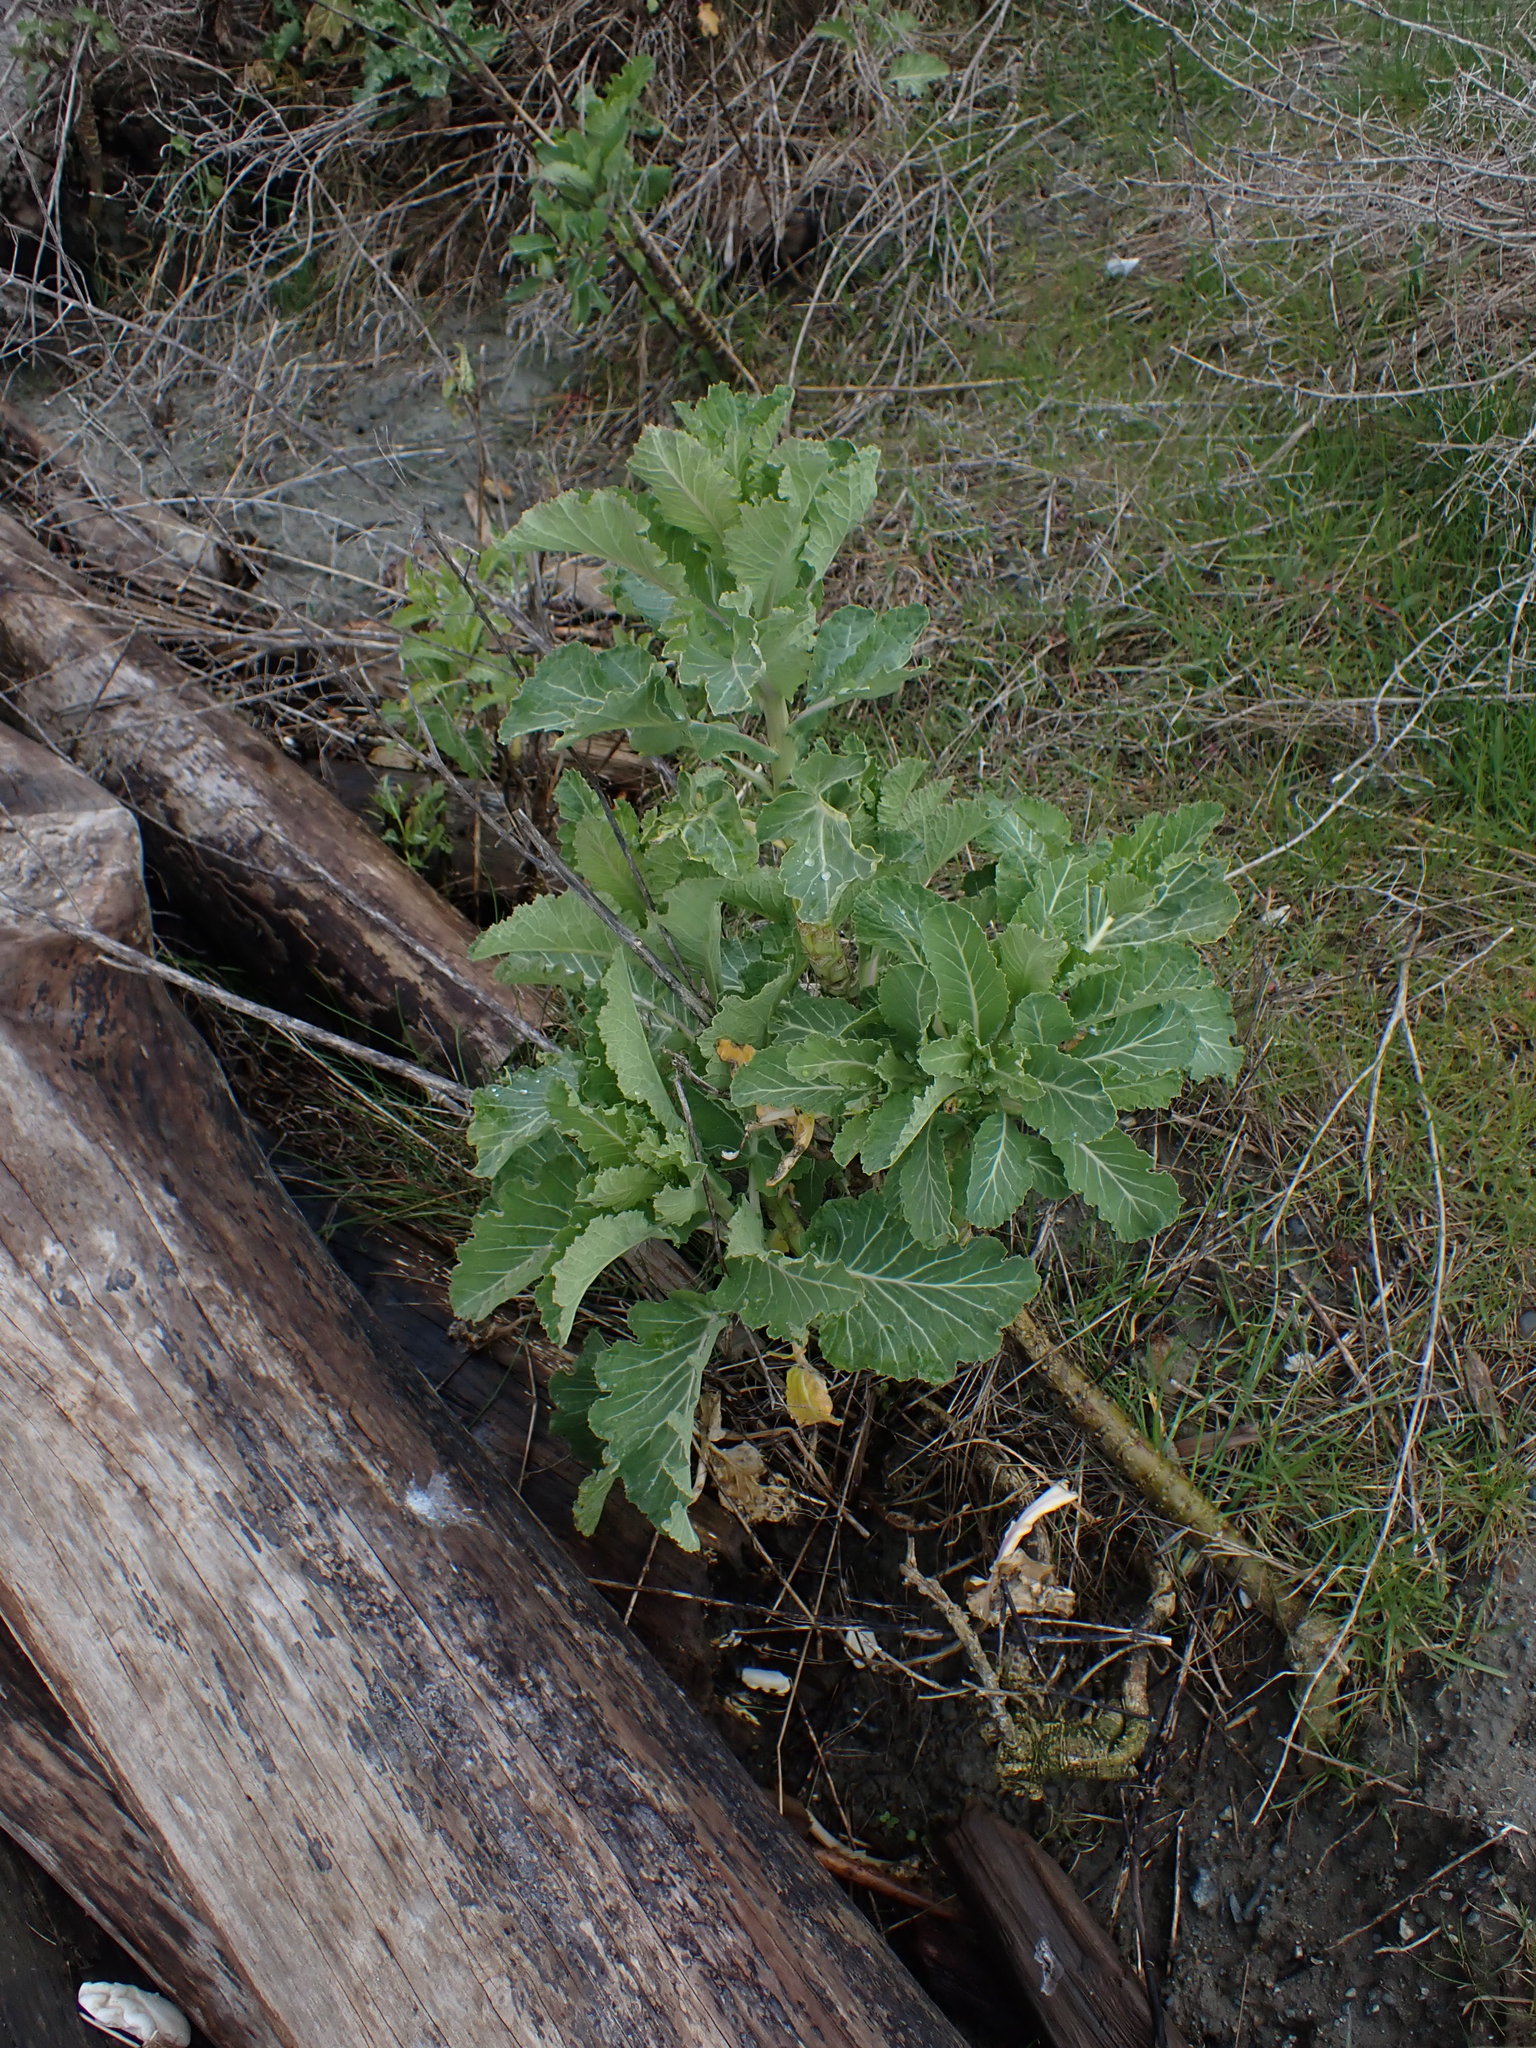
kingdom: Plantae
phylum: Tracheophyta
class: Magnoliopsida
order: Brassicales
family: Brassicaceae
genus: Brassica
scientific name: Brassica oleracea
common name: Cabbage
